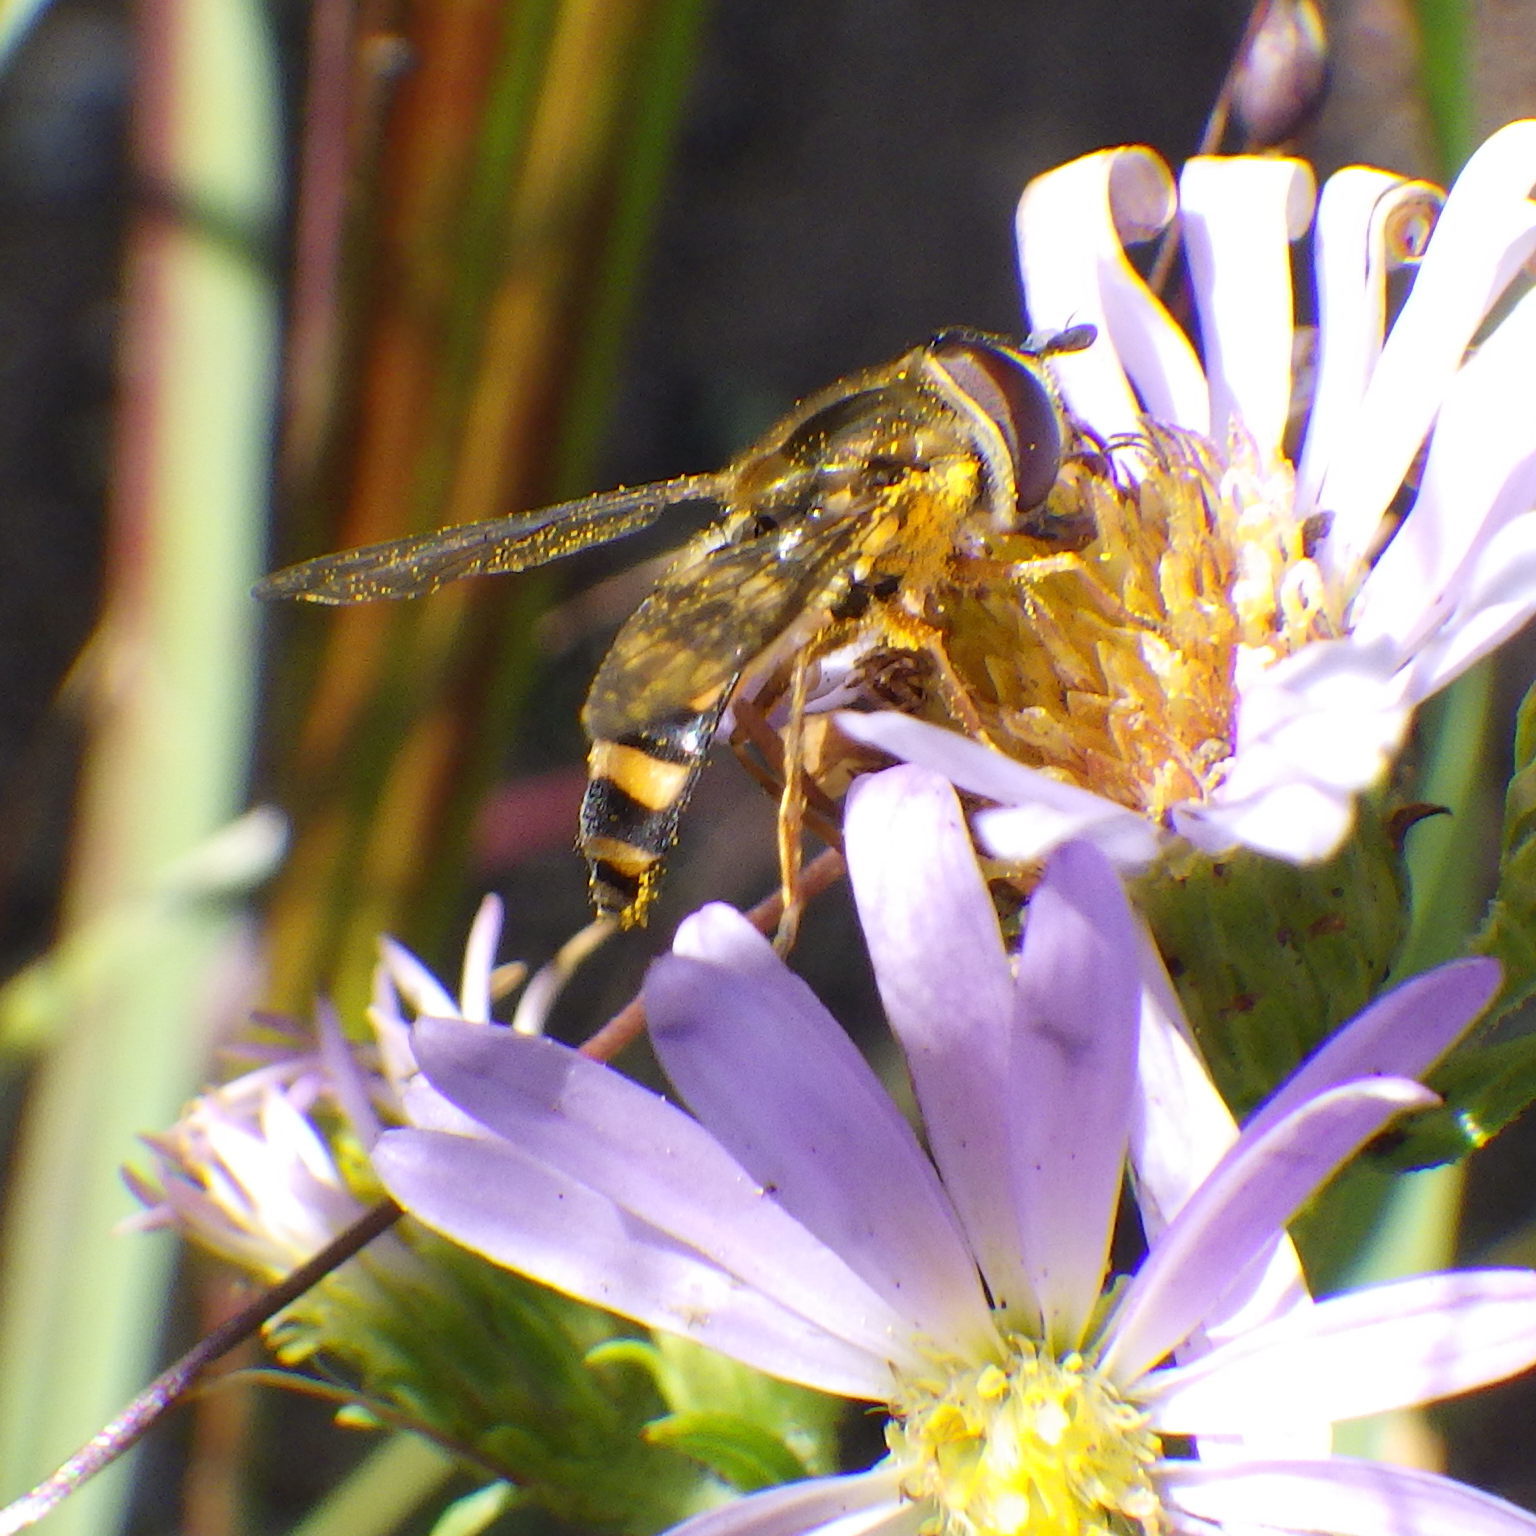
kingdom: Animalia
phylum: Arthropoda
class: Insecta
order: Diptera
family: Syrphidae
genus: Eupeodes
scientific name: Eupeodes
